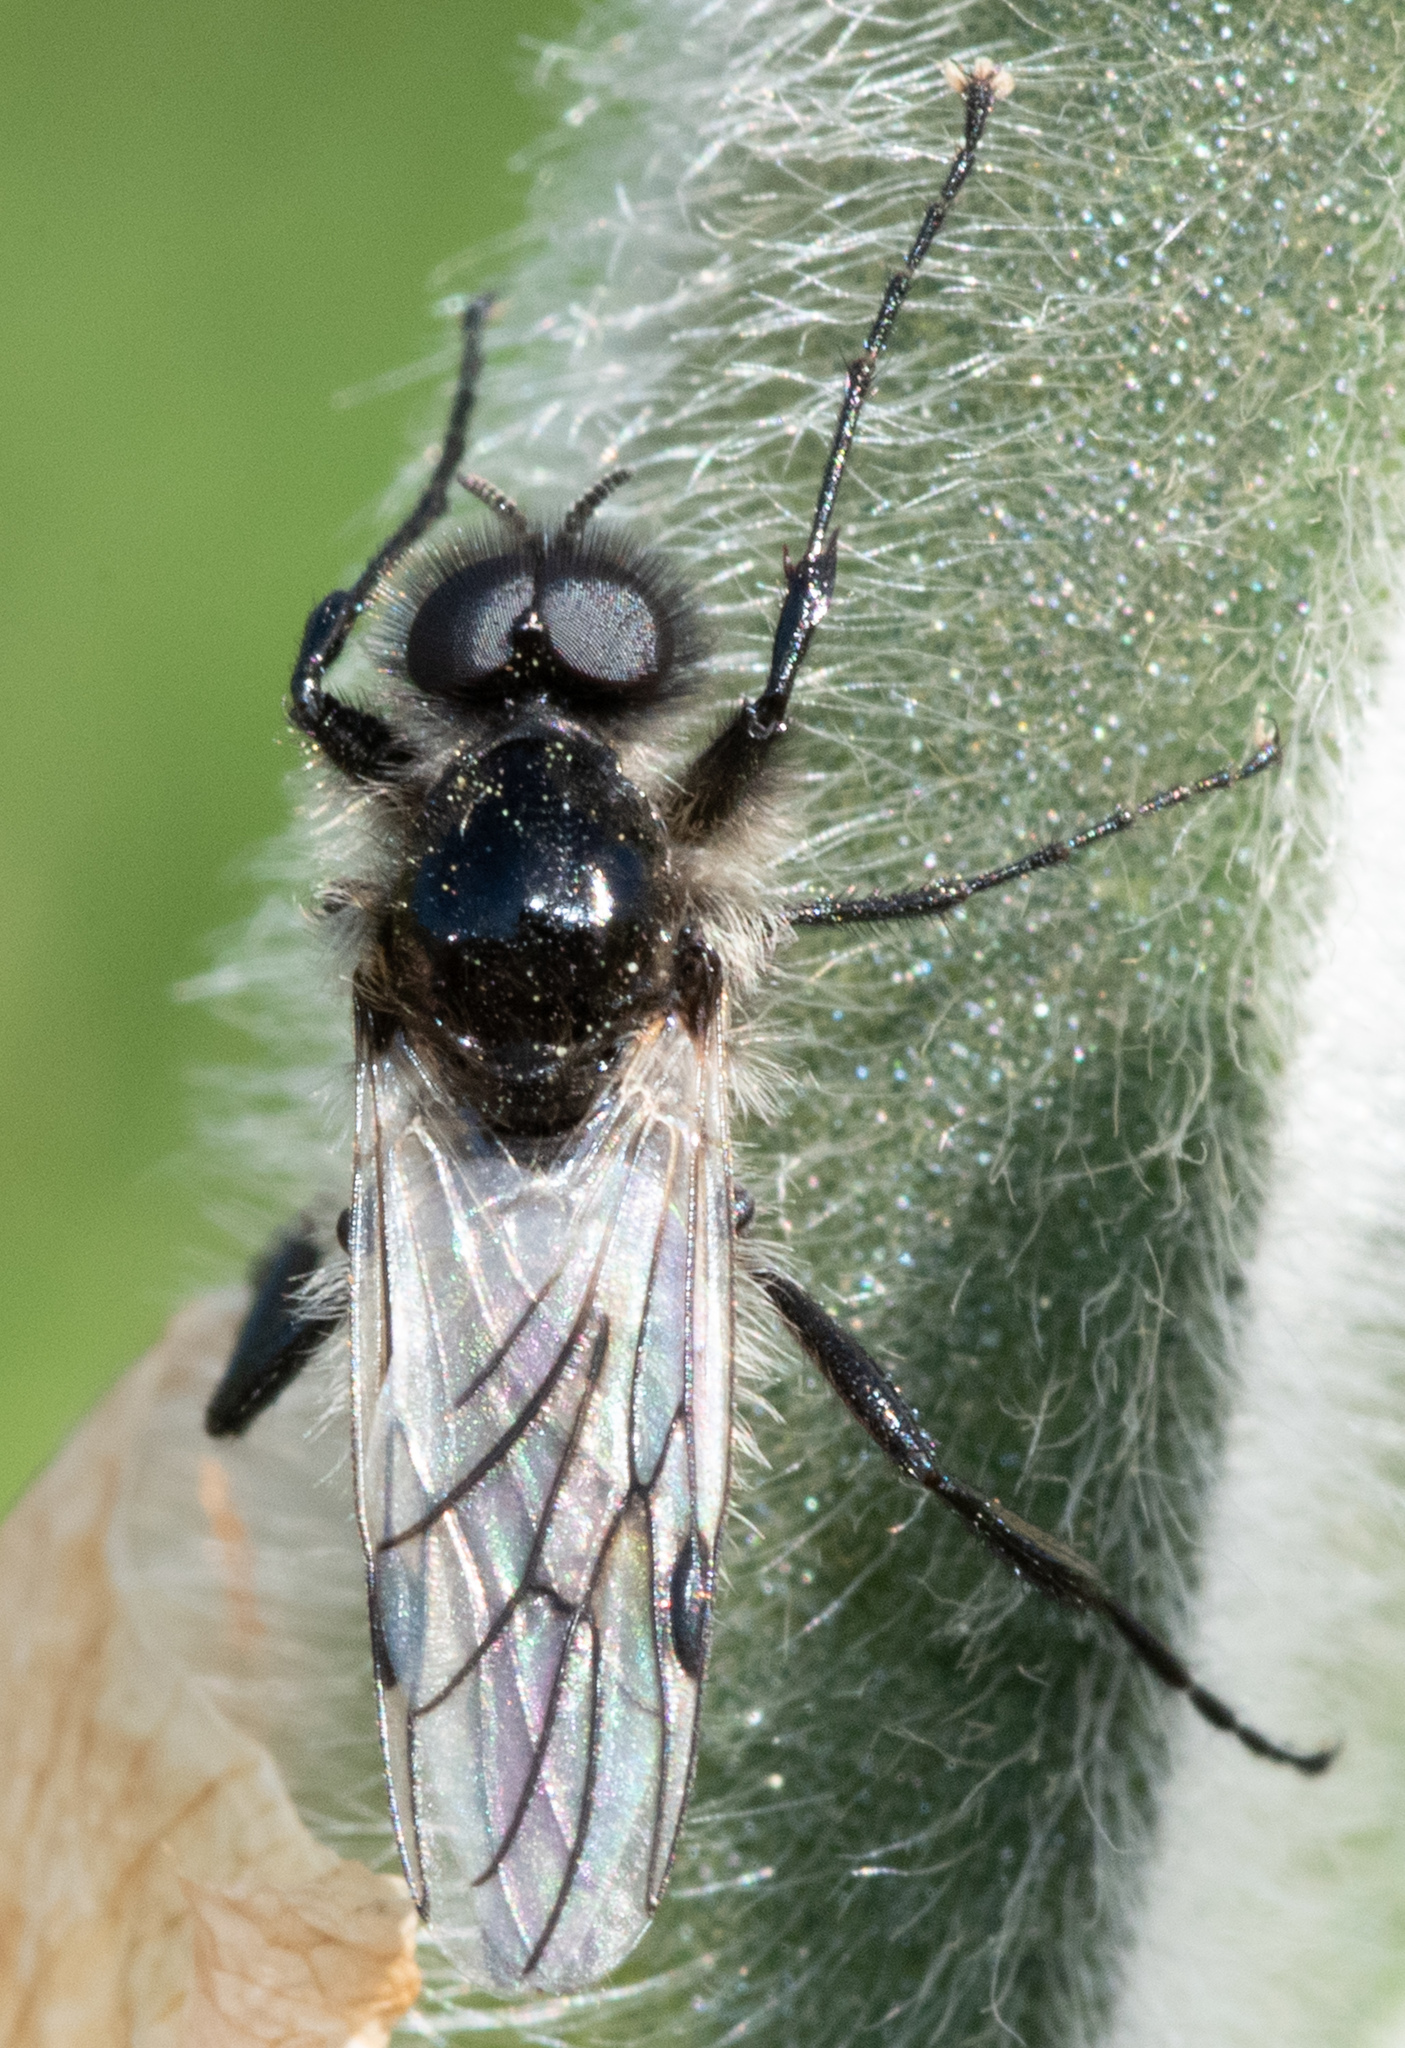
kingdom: Animalia
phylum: Arthropoda
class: Insecta
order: Diptera
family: Bibionidae
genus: Bibio
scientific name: Bibio albipennis
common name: White-winged march fly
